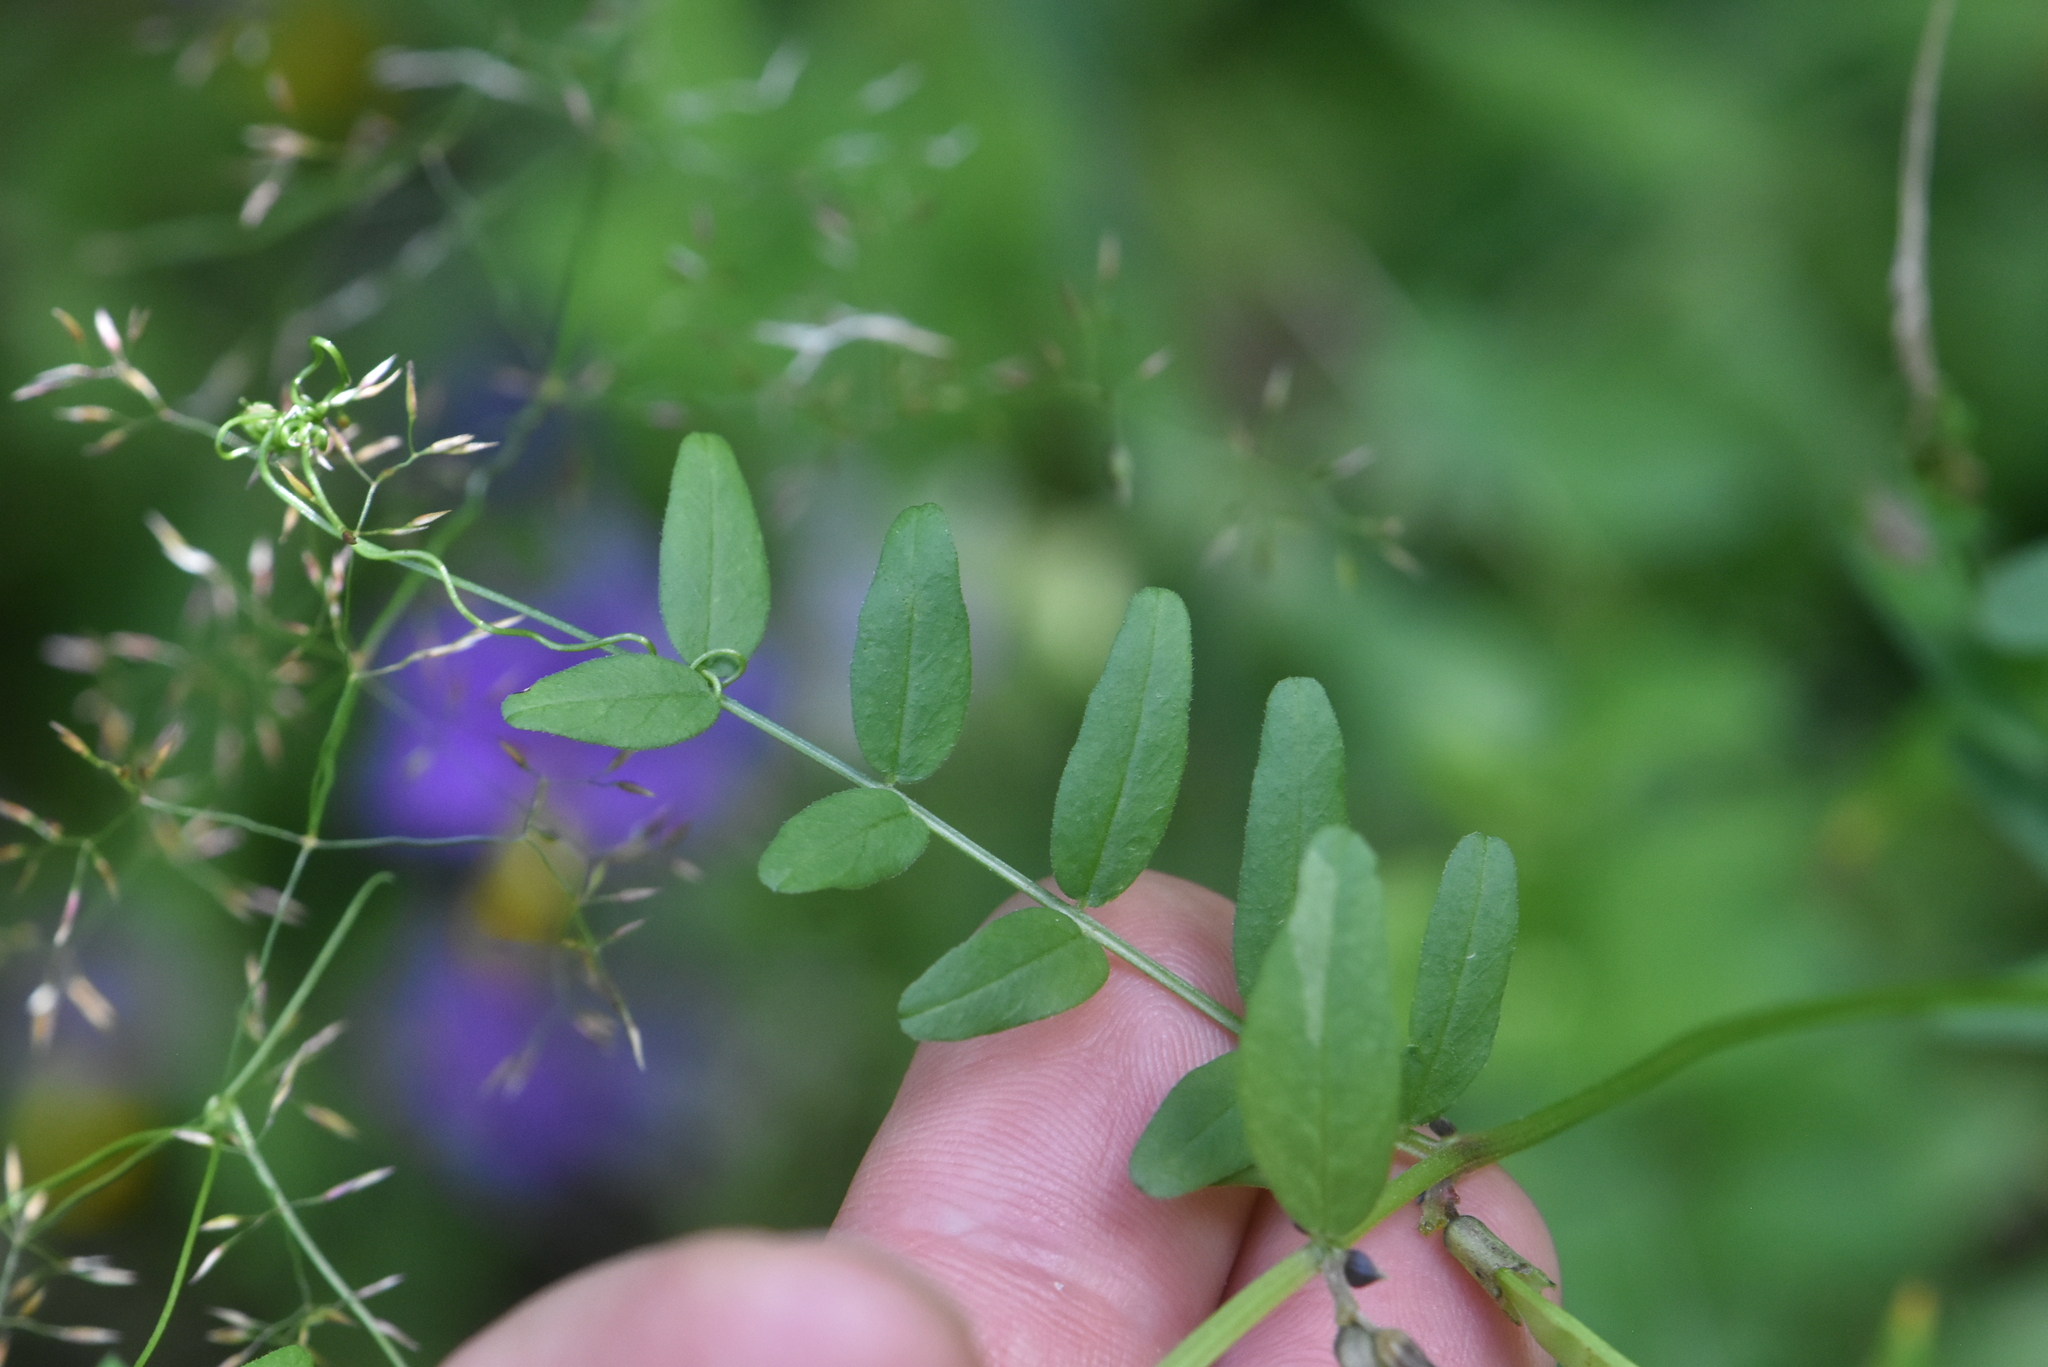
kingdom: Plantae
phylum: Tracheophyta
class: Magnoliopsida
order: Fabales
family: Fabaceae
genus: Vicia
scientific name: Vicia sepium
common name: Bush vetch
